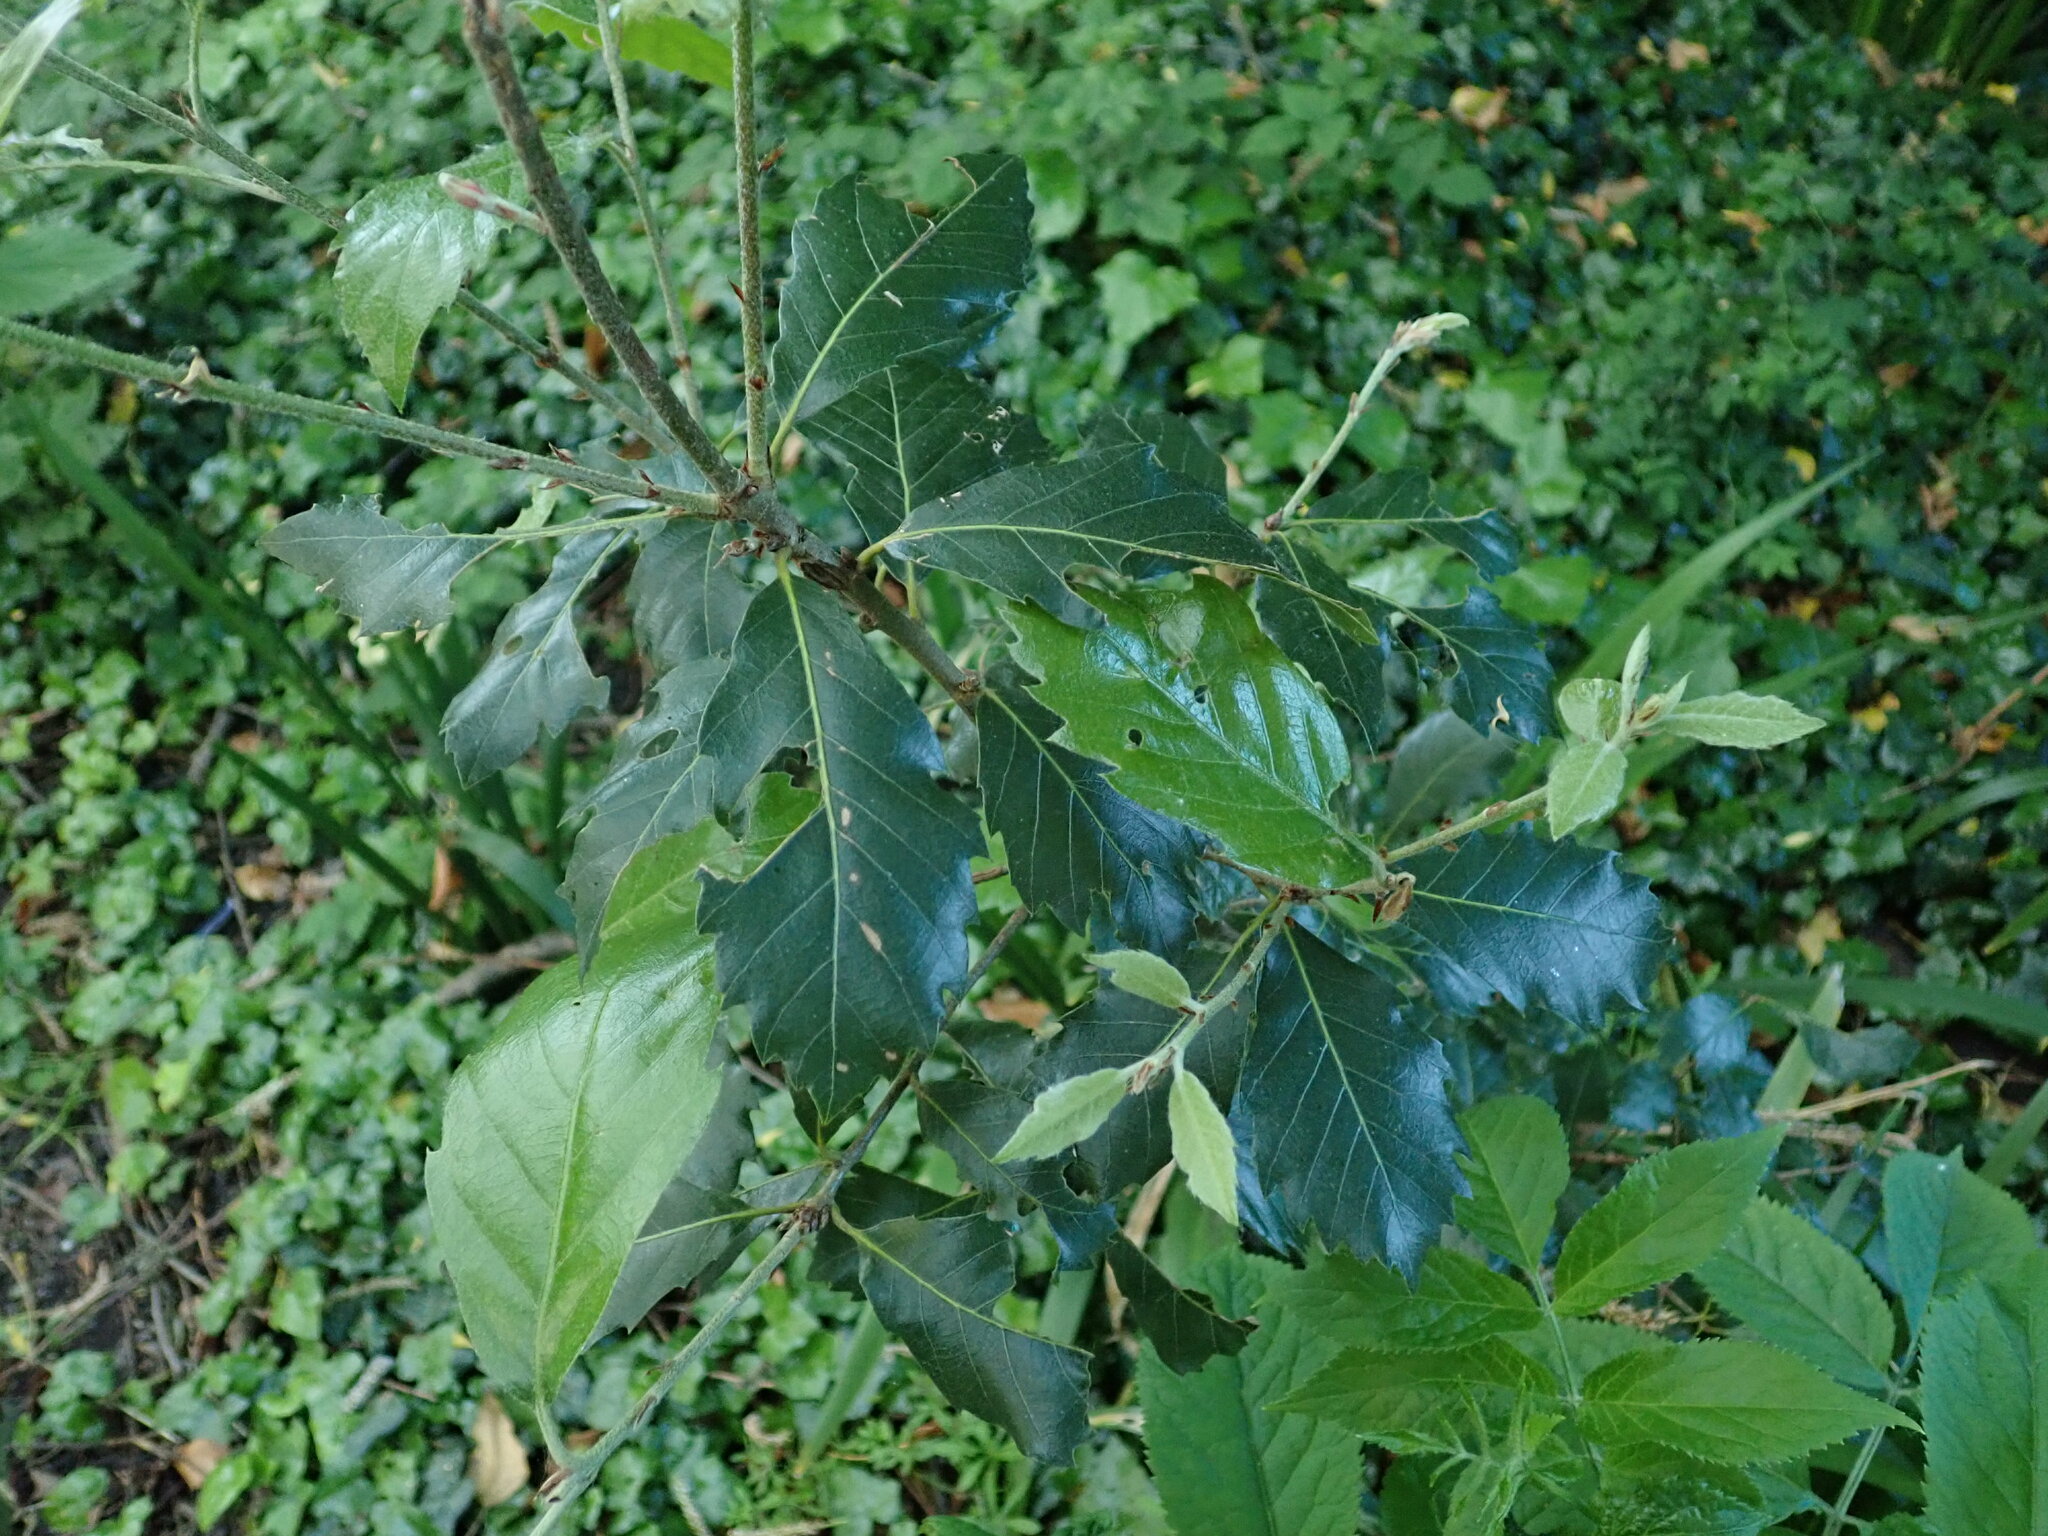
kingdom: Plantae
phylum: Tracheophyta
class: Magnoliopsida
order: Fagales
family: Fagaceae
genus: Quercus
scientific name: Quercus ilex
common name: Evergreen oak
